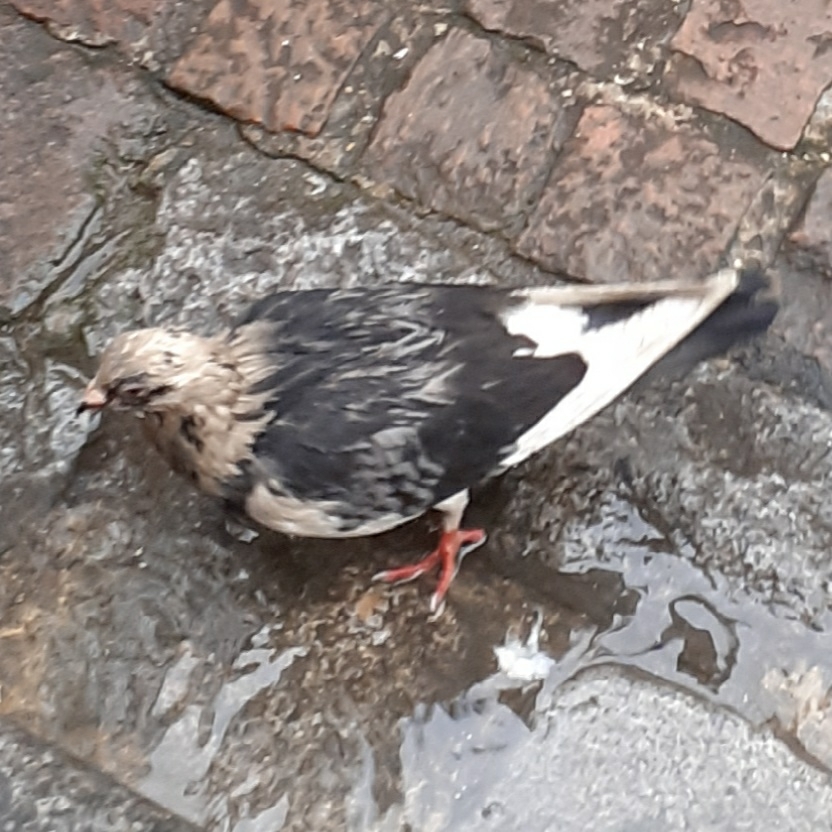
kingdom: Animalia
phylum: Chordata
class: Aves
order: Columbiformes
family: Columbidae
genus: Columba
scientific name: Columba livia
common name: Rock pigeon
